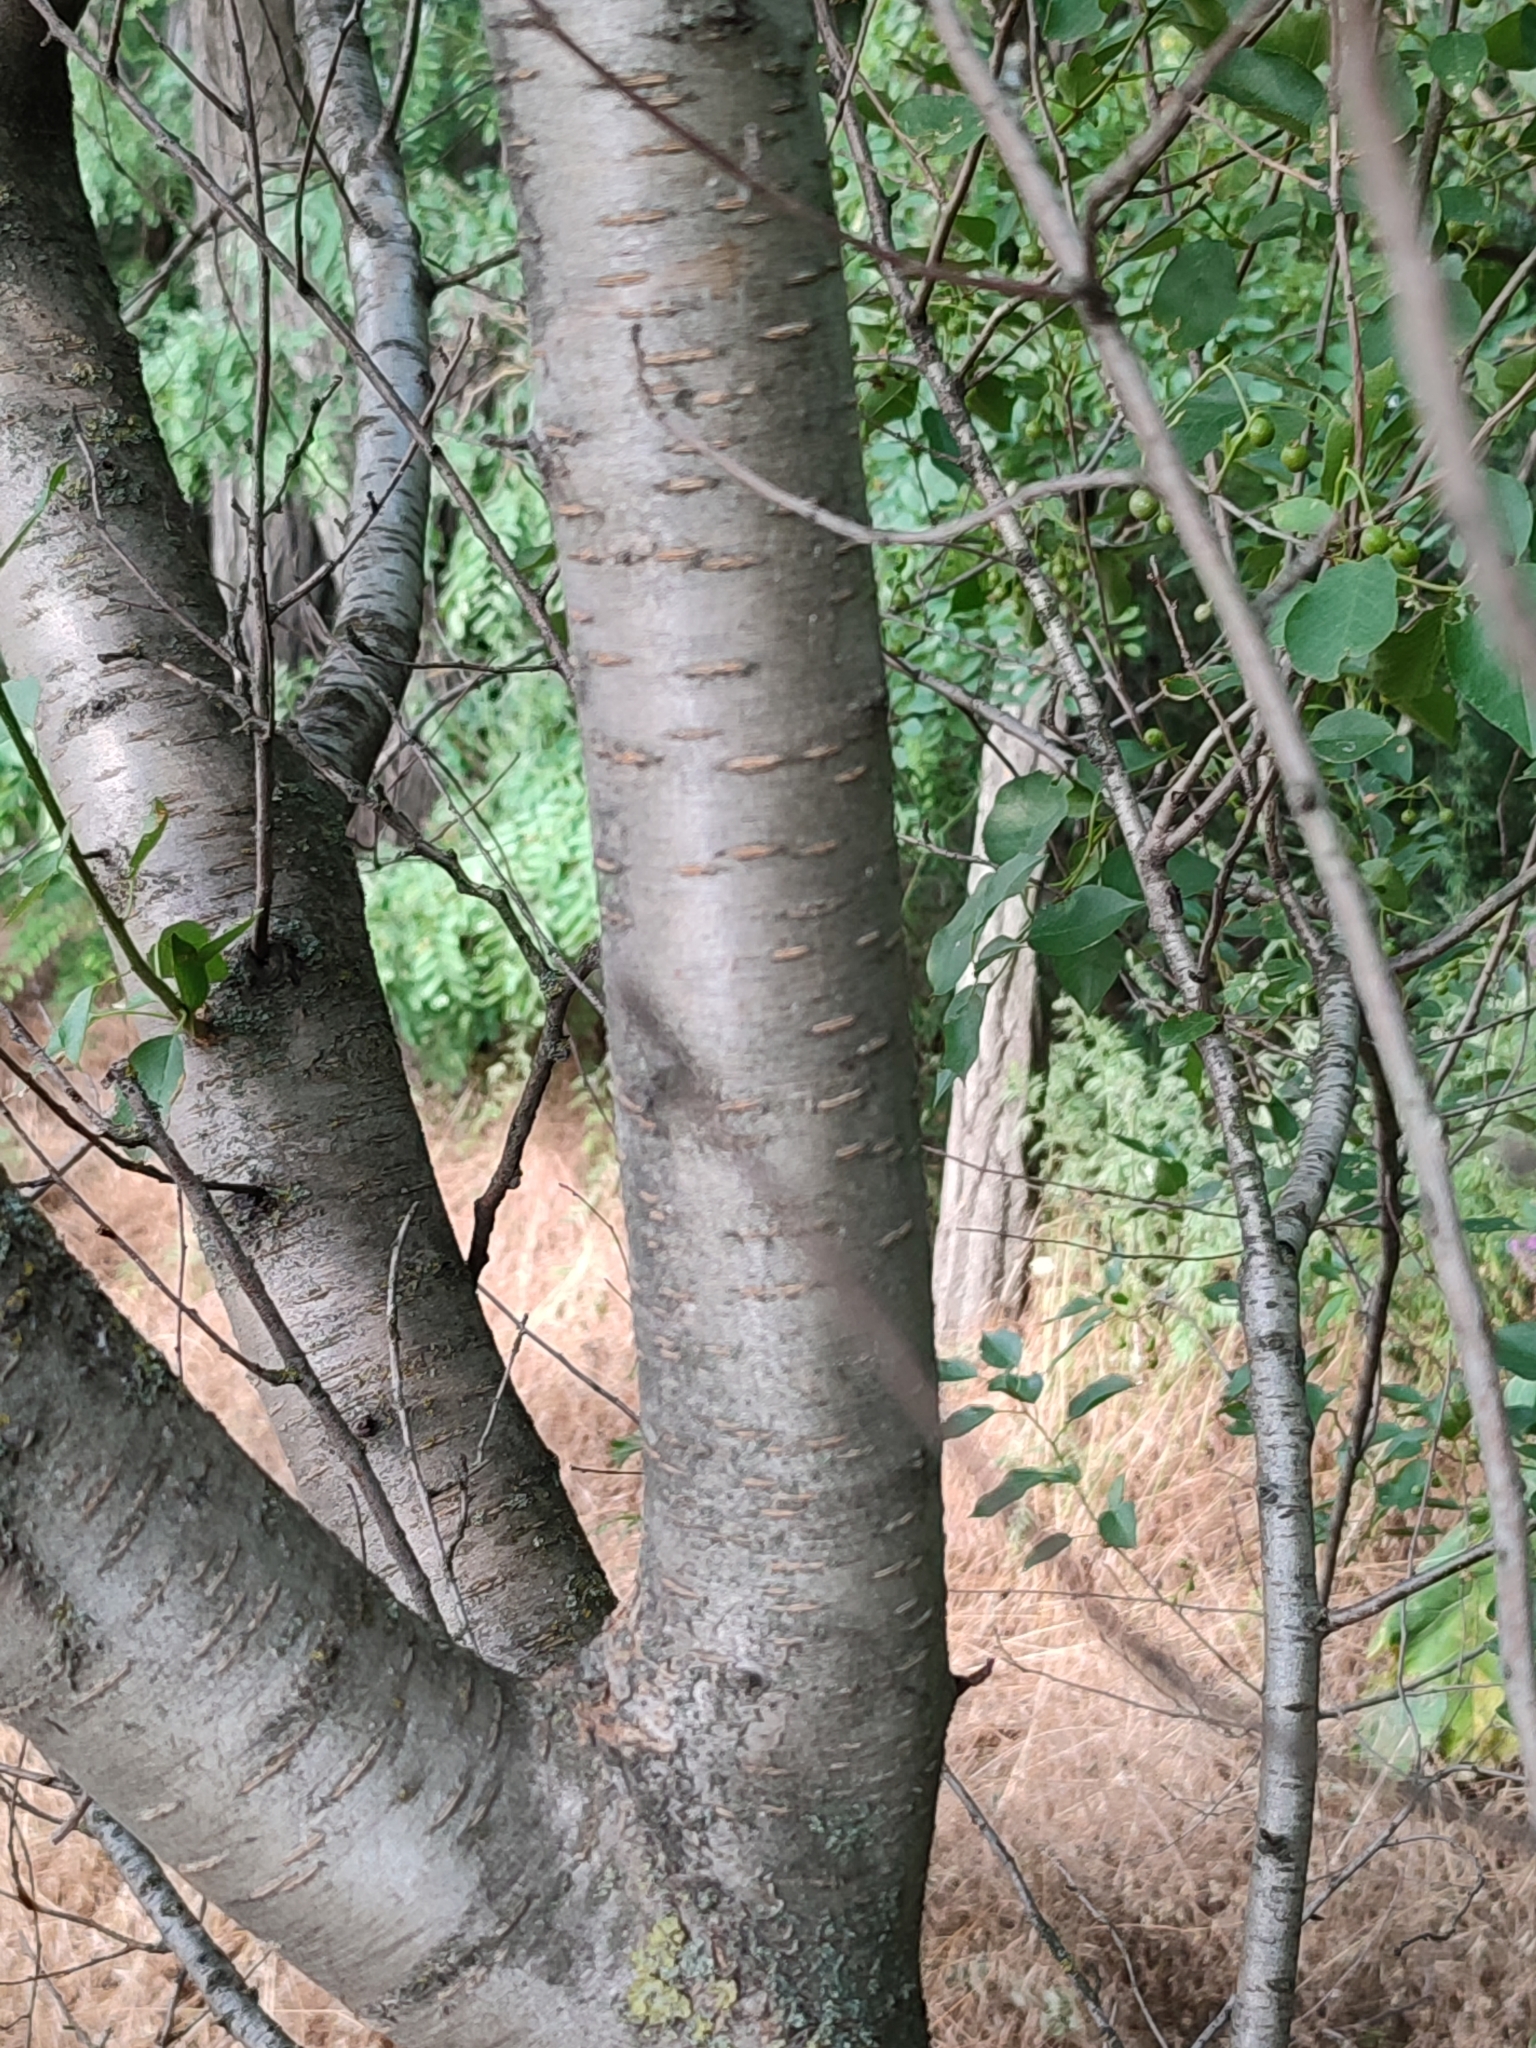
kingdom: Plantae
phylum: Tracheophyta
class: Magnoliopsida
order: Rosales
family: Rosaceae
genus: Prunus
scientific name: Prunus mahaleb
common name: Mahaleb cherry
